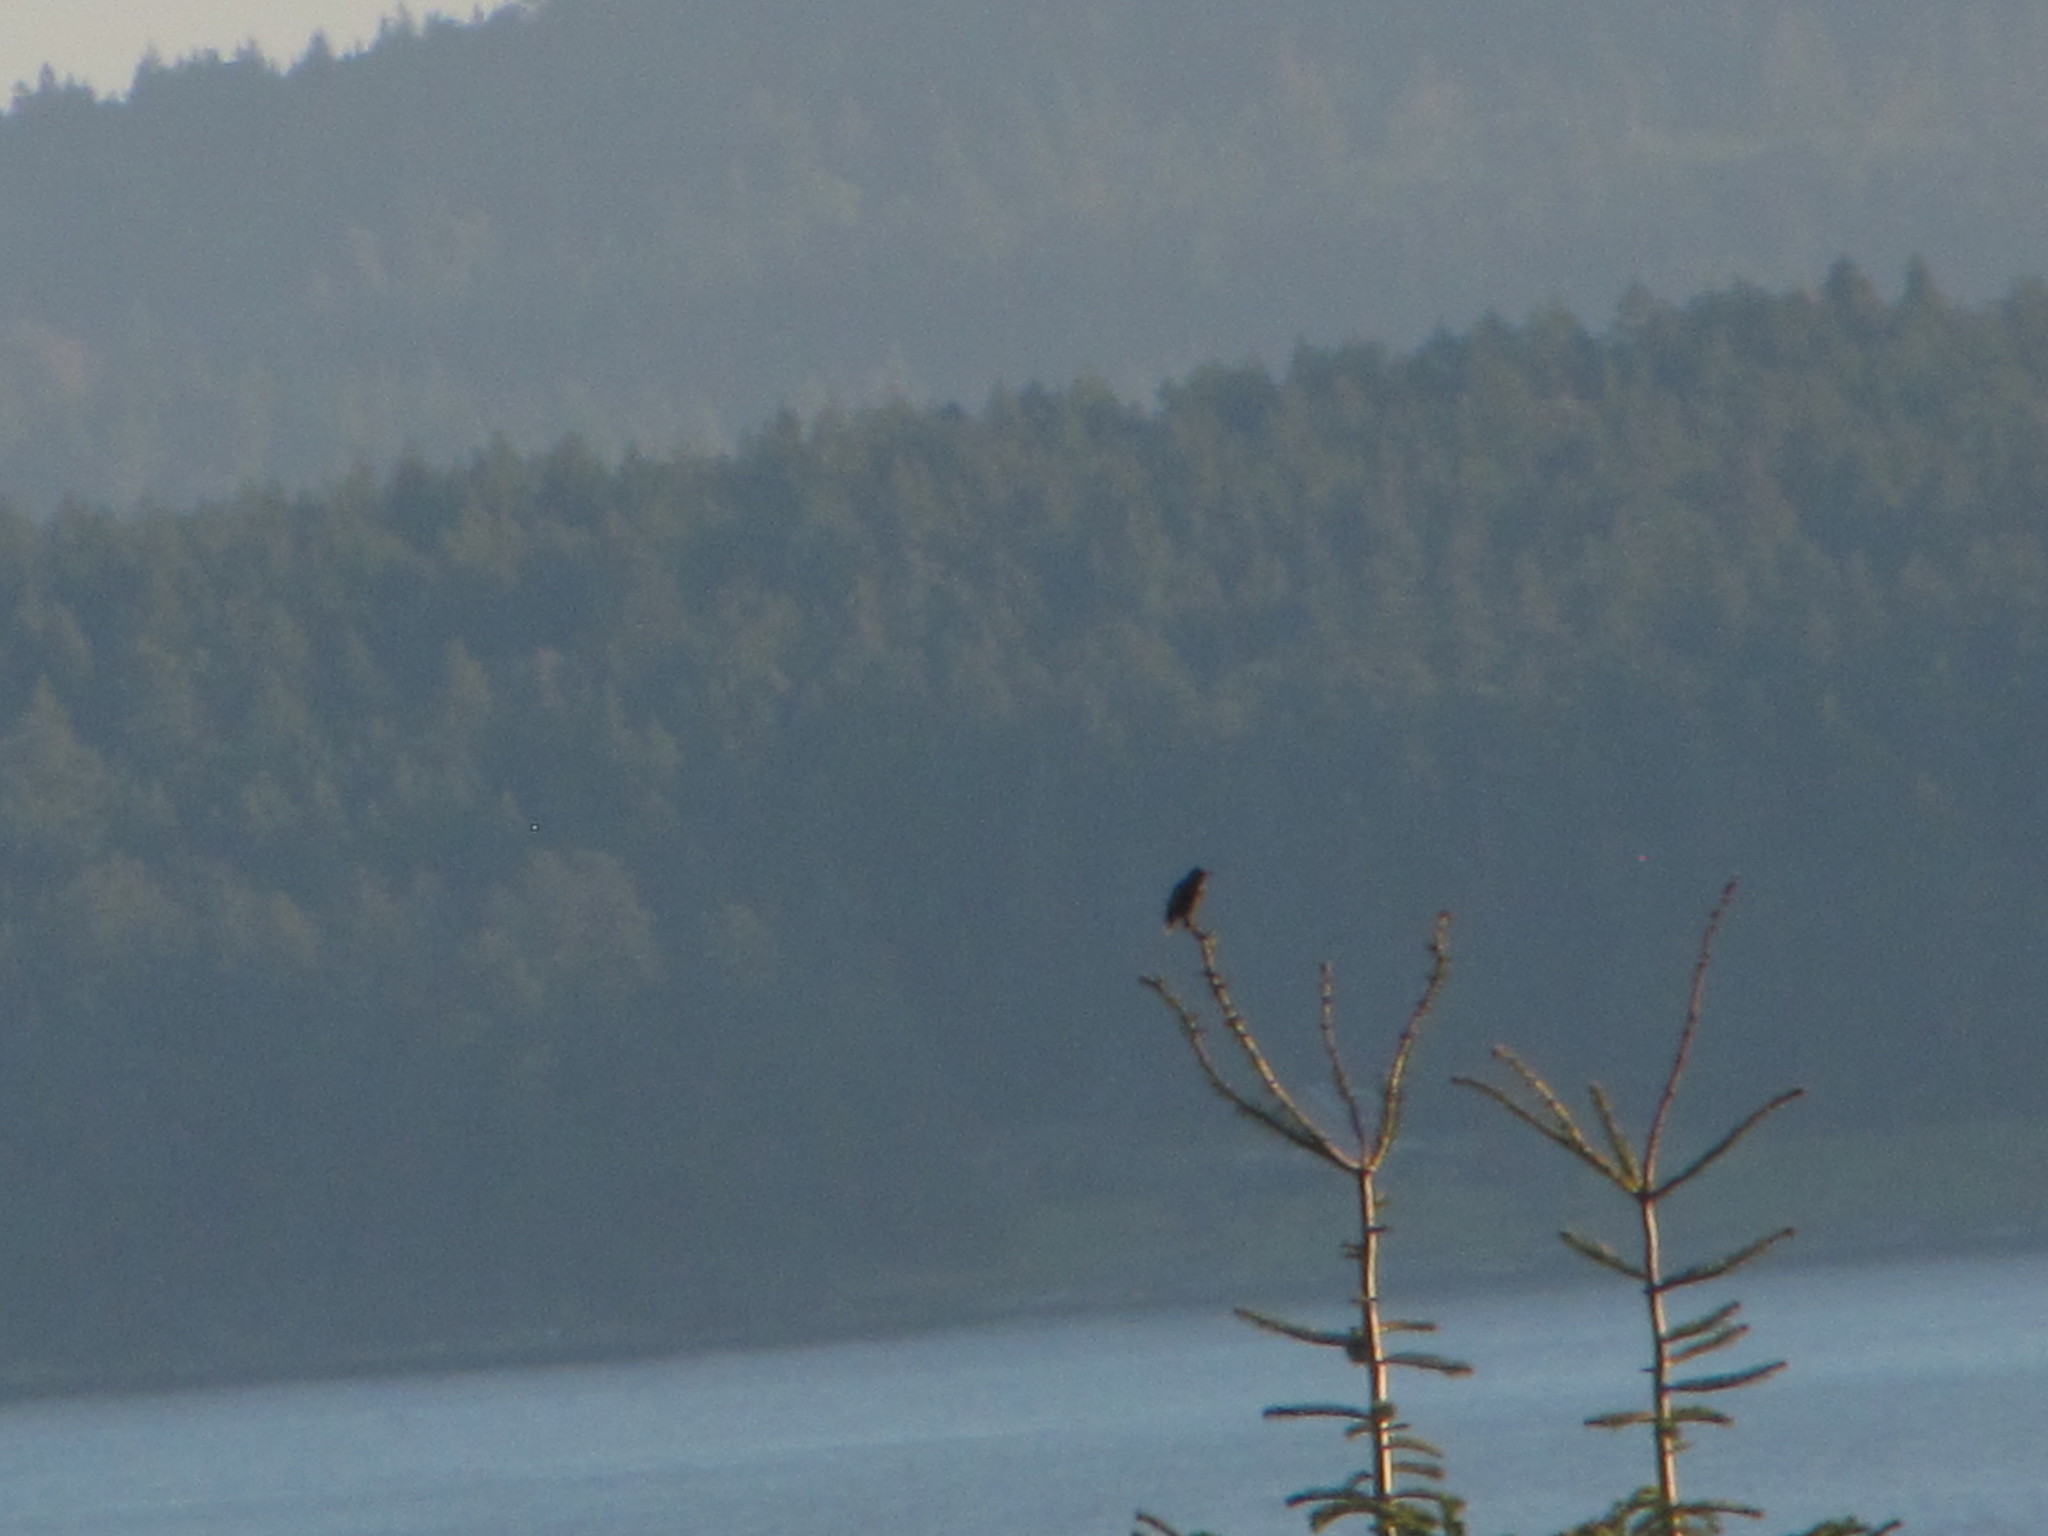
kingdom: Animalia
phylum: Chordata
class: Aves
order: Passeriformes
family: Corvidae
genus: Corvus
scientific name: Corvus brachyrhynchos
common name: American crow
